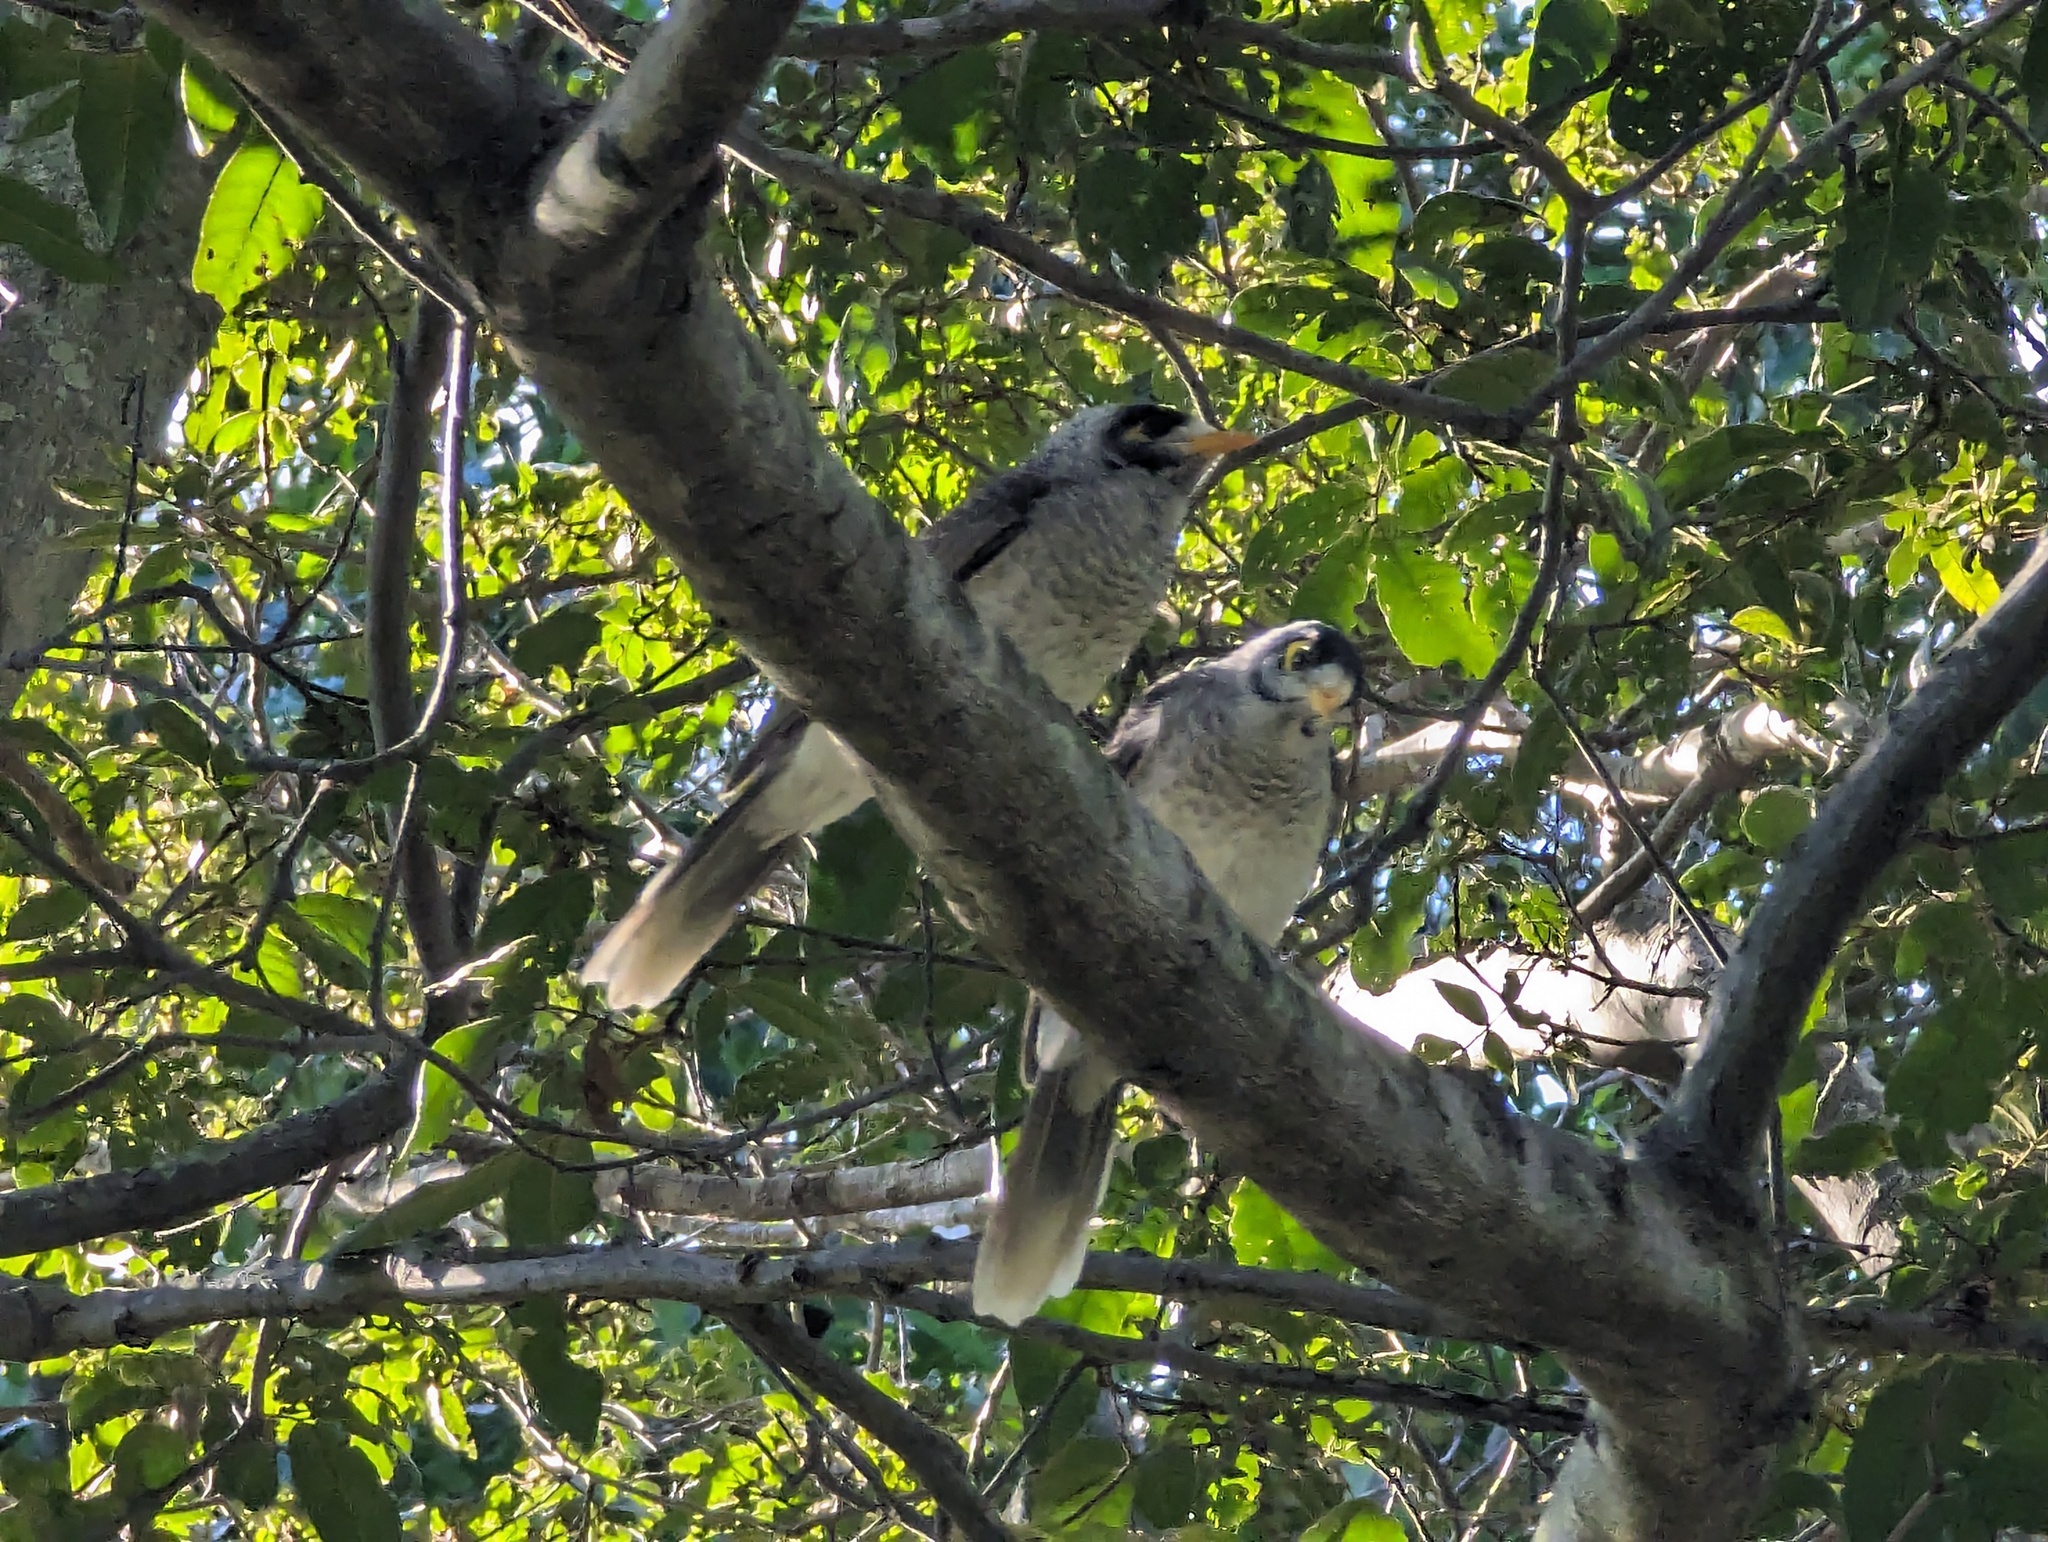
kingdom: Animalia
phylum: Chordata
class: Aves
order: Passeriformes
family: Meliphagidae
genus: Manorina
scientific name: Manorina melanocephala
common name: Noisy miner
